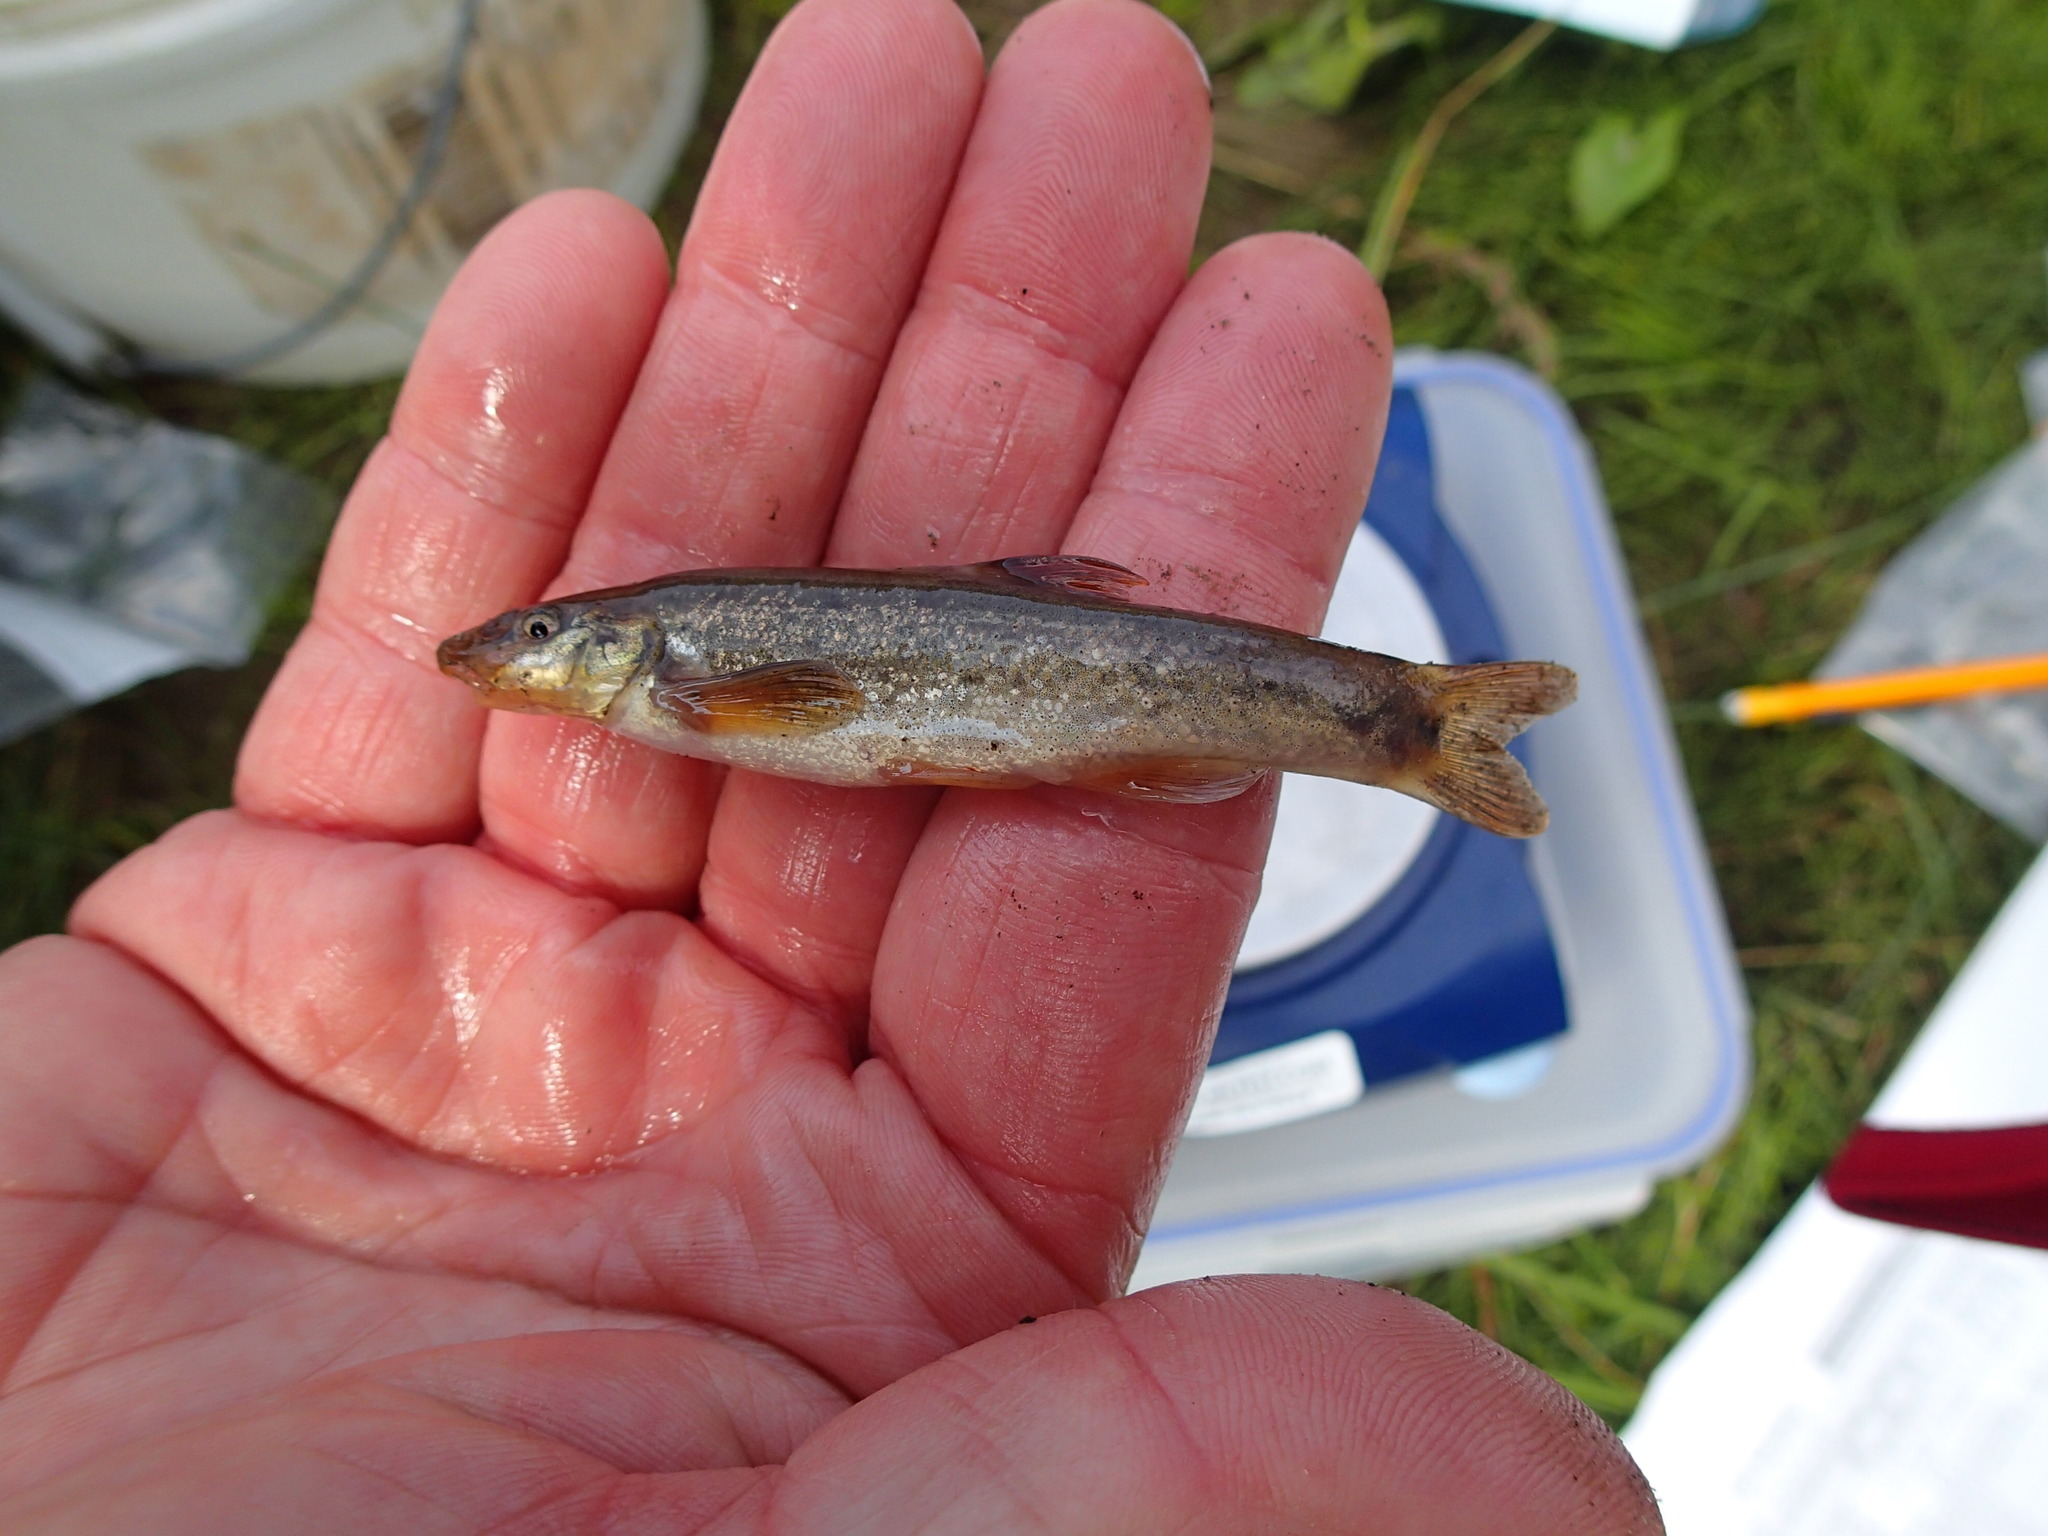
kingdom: Animalia
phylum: Chordata
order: Cypriniformes
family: Cyprinidae
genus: Rhinichthys
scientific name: Rhinichthys cataractae
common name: Longnose dace
